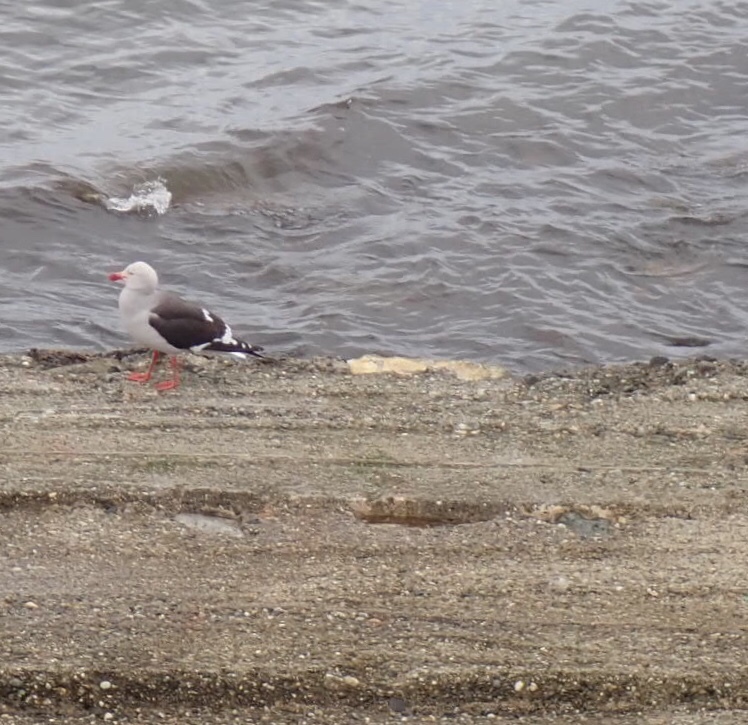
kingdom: Animalia
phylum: Chordata
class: Aves
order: Charadriiformes
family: Laridae
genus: Leucophaeus
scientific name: Leucophaeus scoresbii
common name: Dolphin gull
